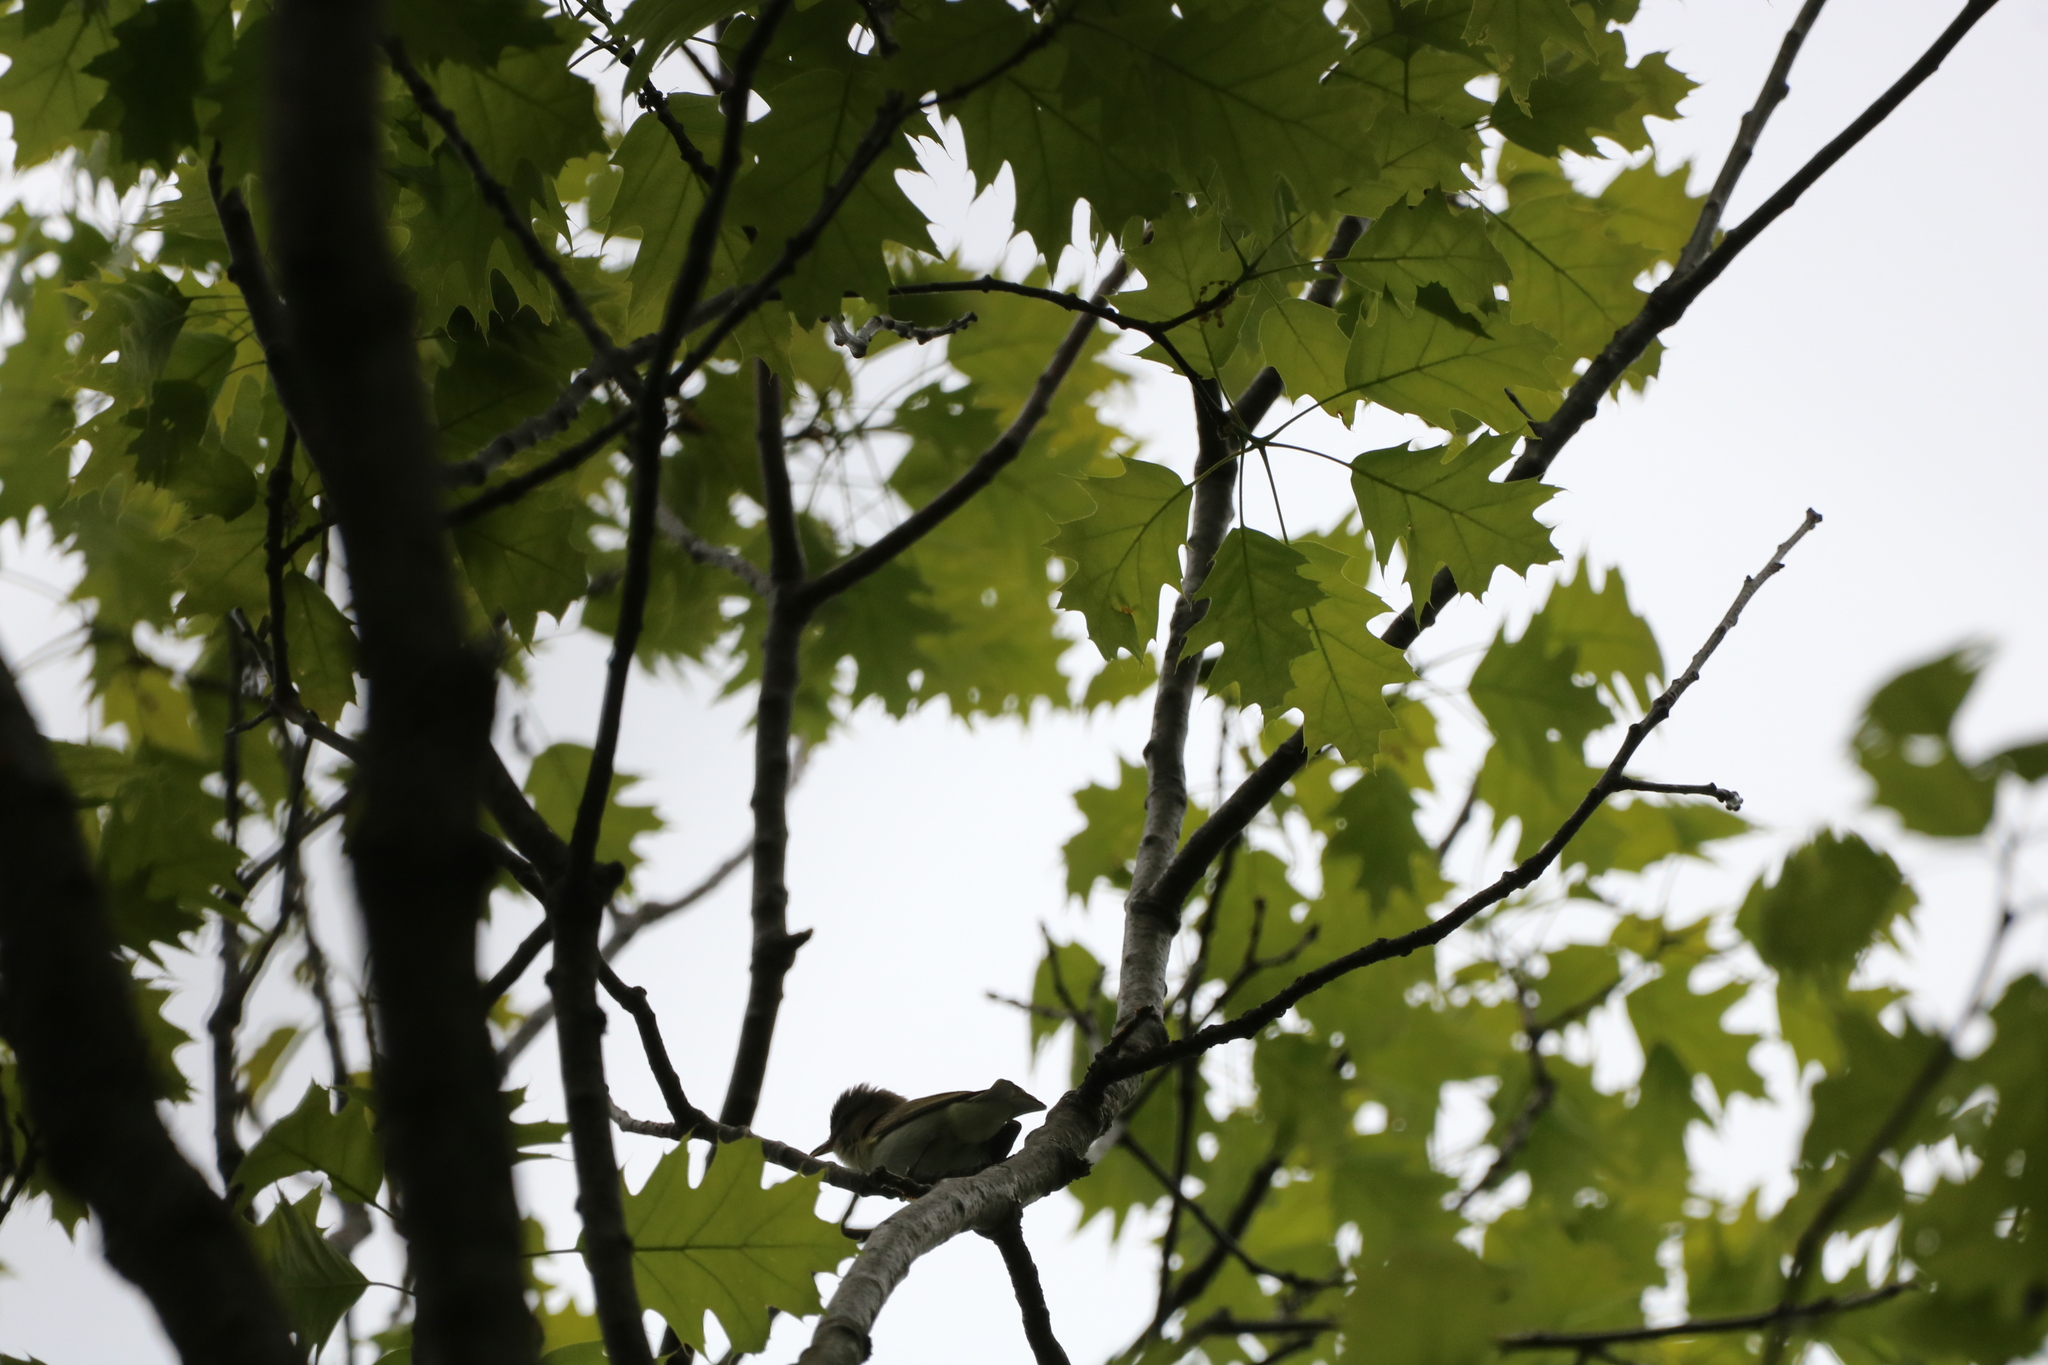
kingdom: Animalia
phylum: Chordata
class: Aves
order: Passeriformes
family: Vireonidae
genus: Vireo
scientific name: Vireo olivaceus
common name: Red-eyed vireo
